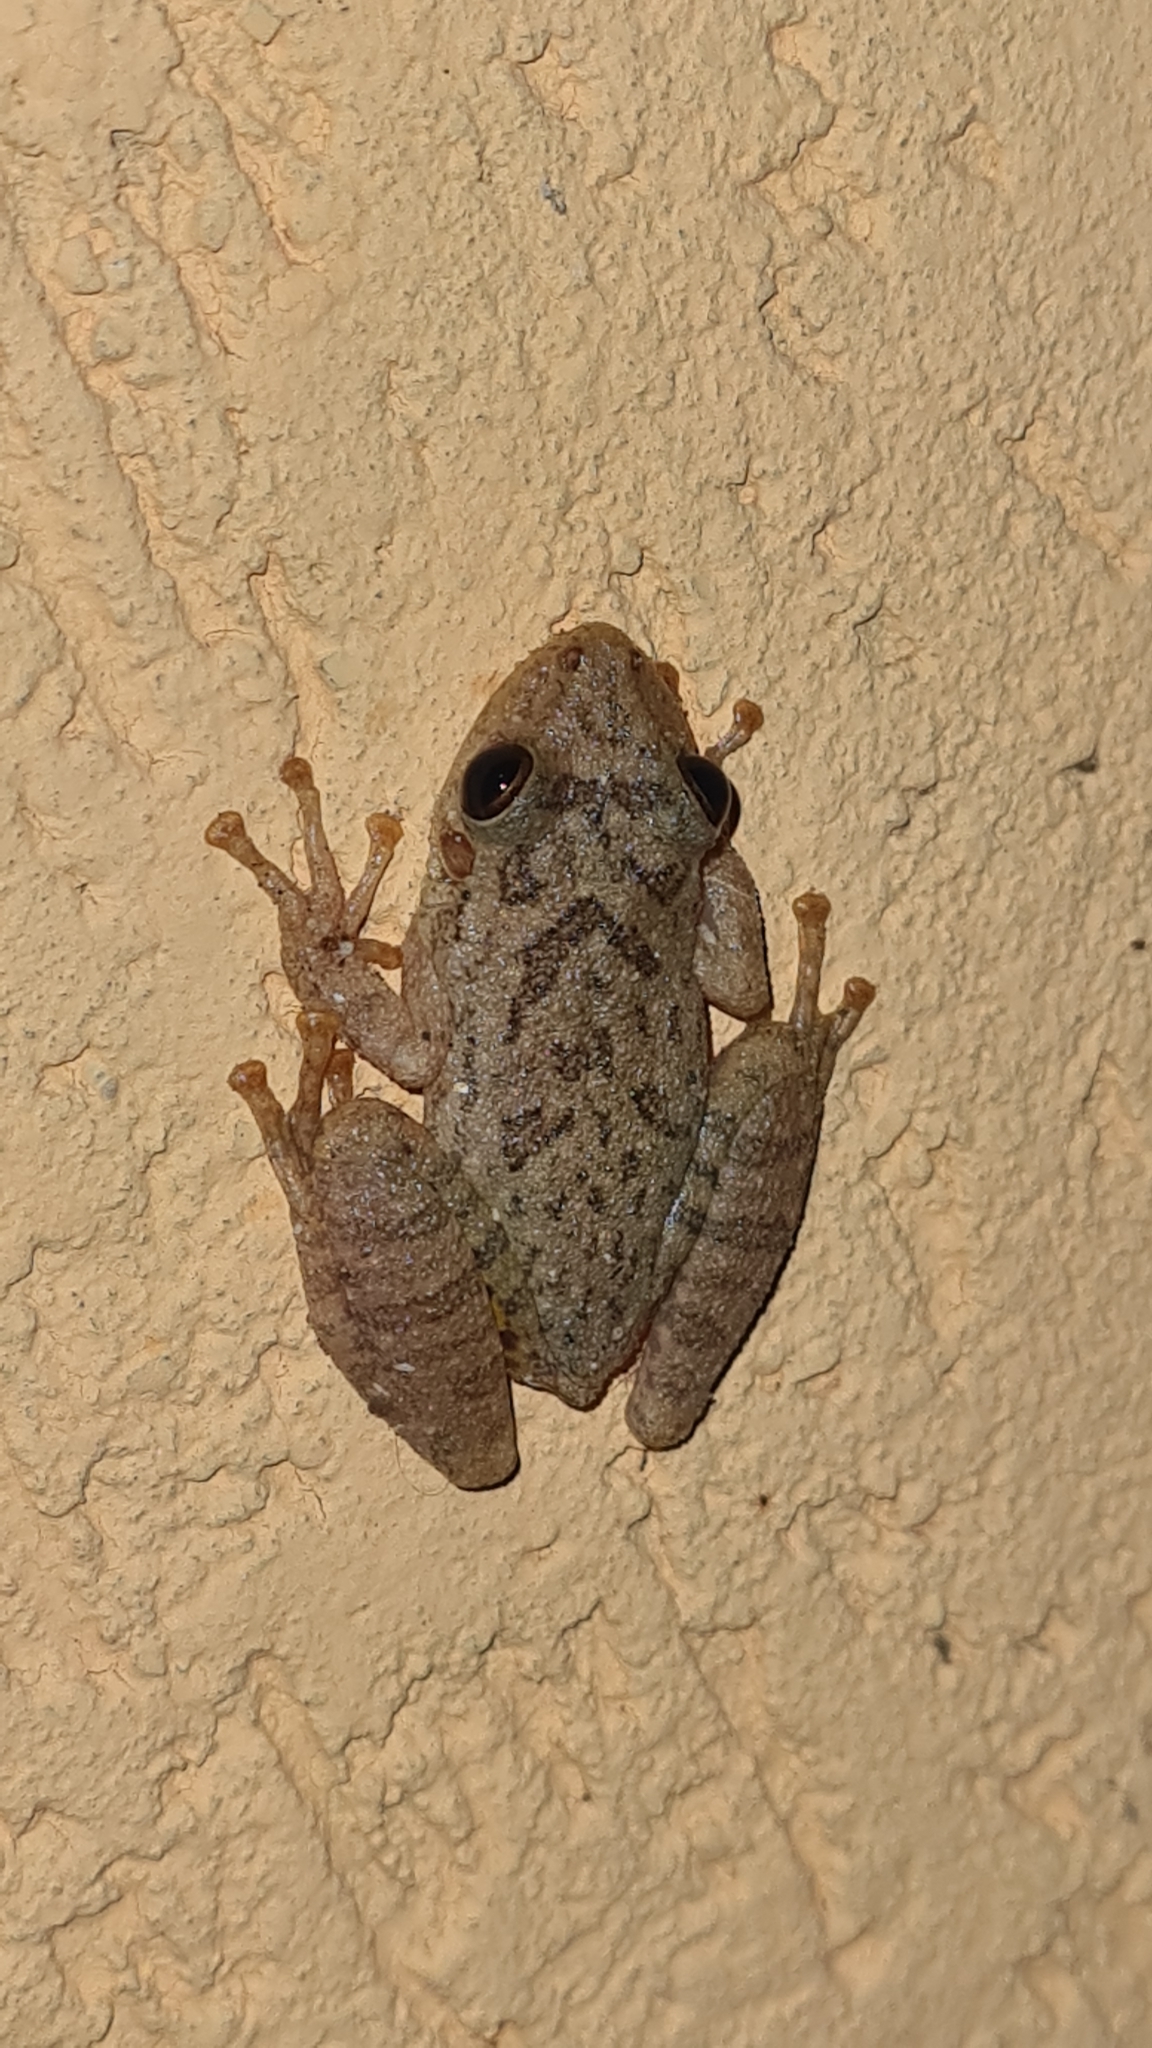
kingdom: Animalia
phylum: Chordata
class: Amphibia
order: Anura
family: Hylidae
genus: Scinax
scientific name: Scinax fuscovarius
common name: Fuscous-blotched treefrog
